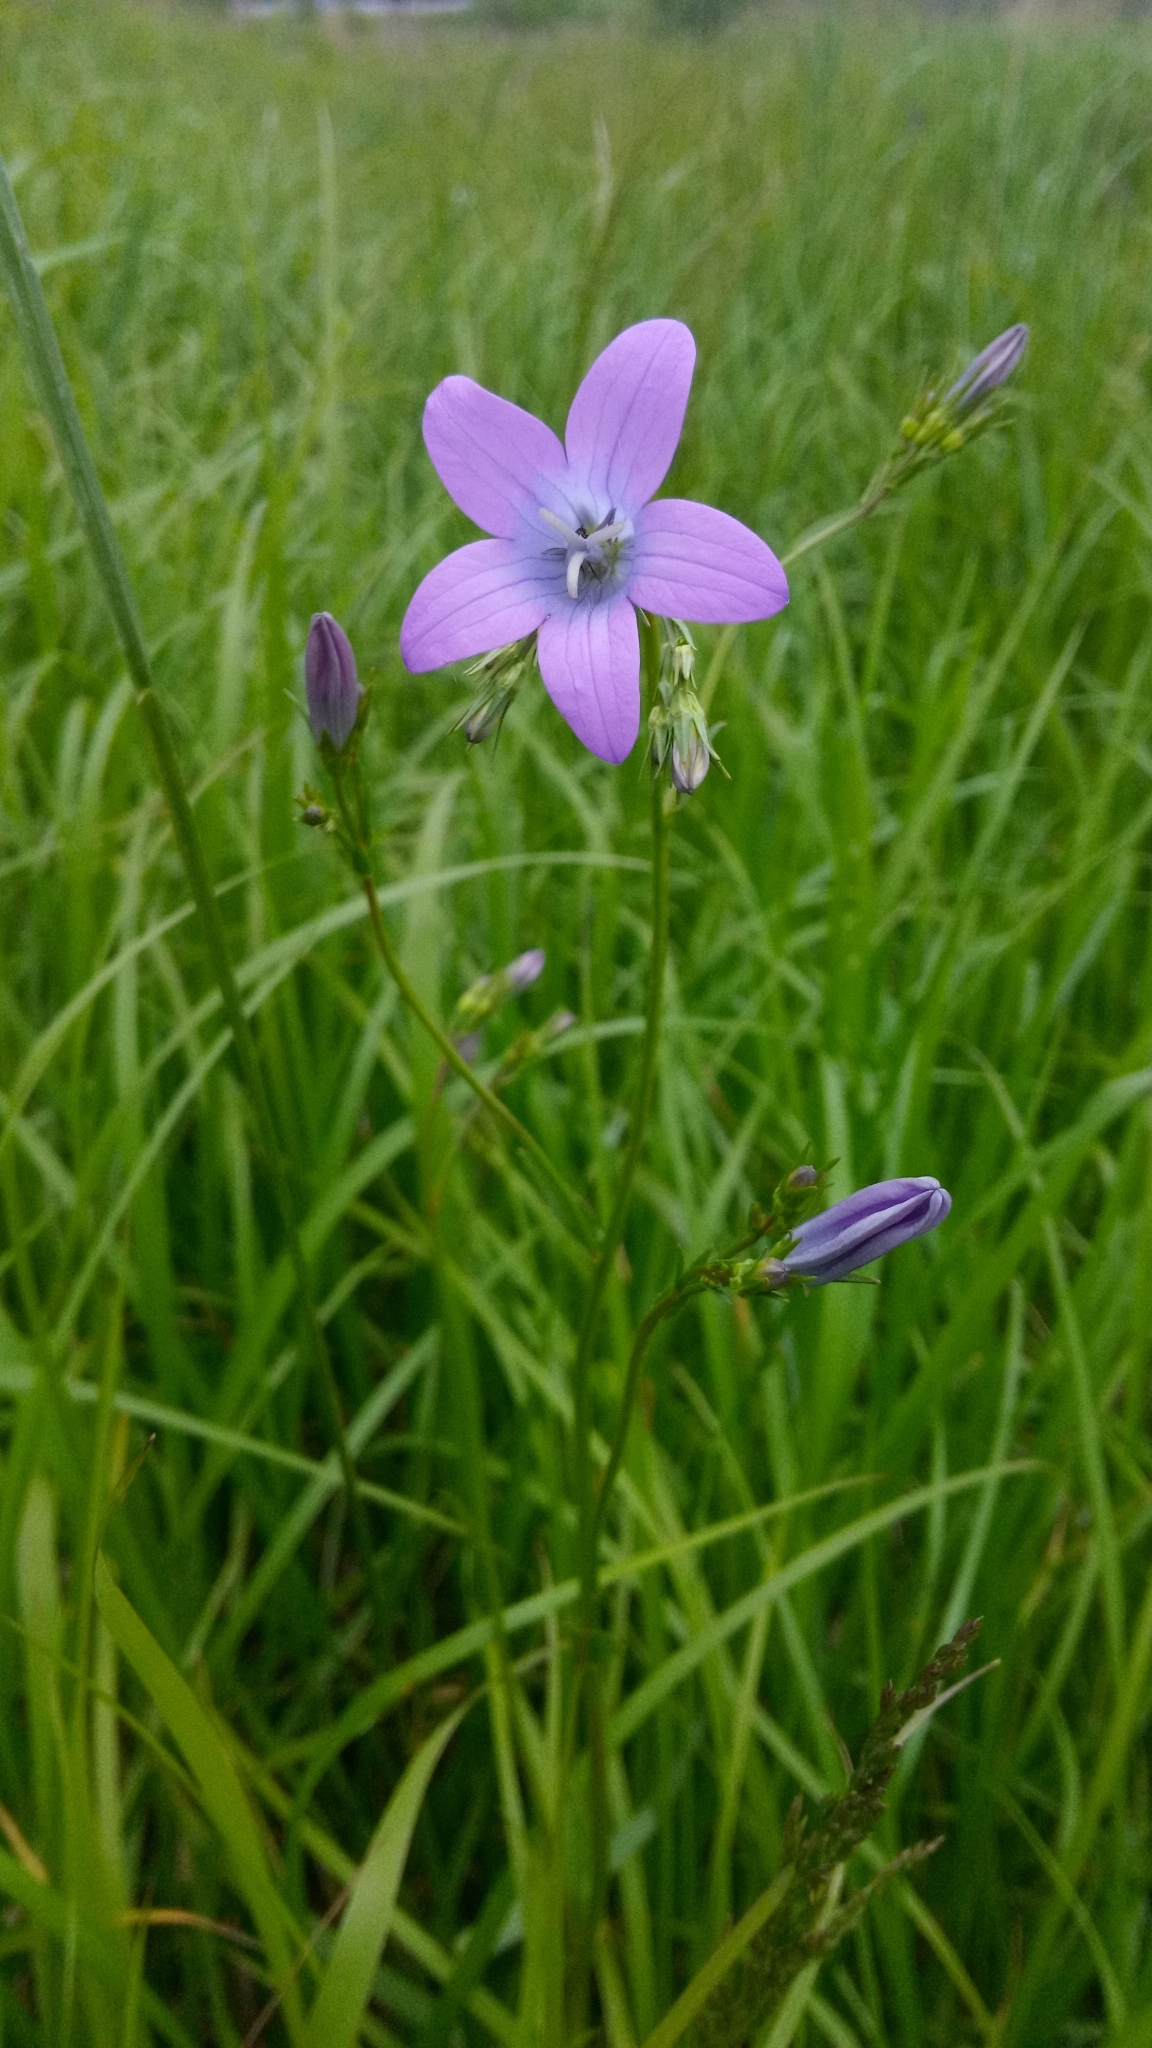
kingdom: Plantae
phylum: Tracheophyta
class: Magnoliopsida
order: Asterales
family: Campanulaceae
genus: Campanula
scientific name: Campanula patula
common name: Spreading bellflower
